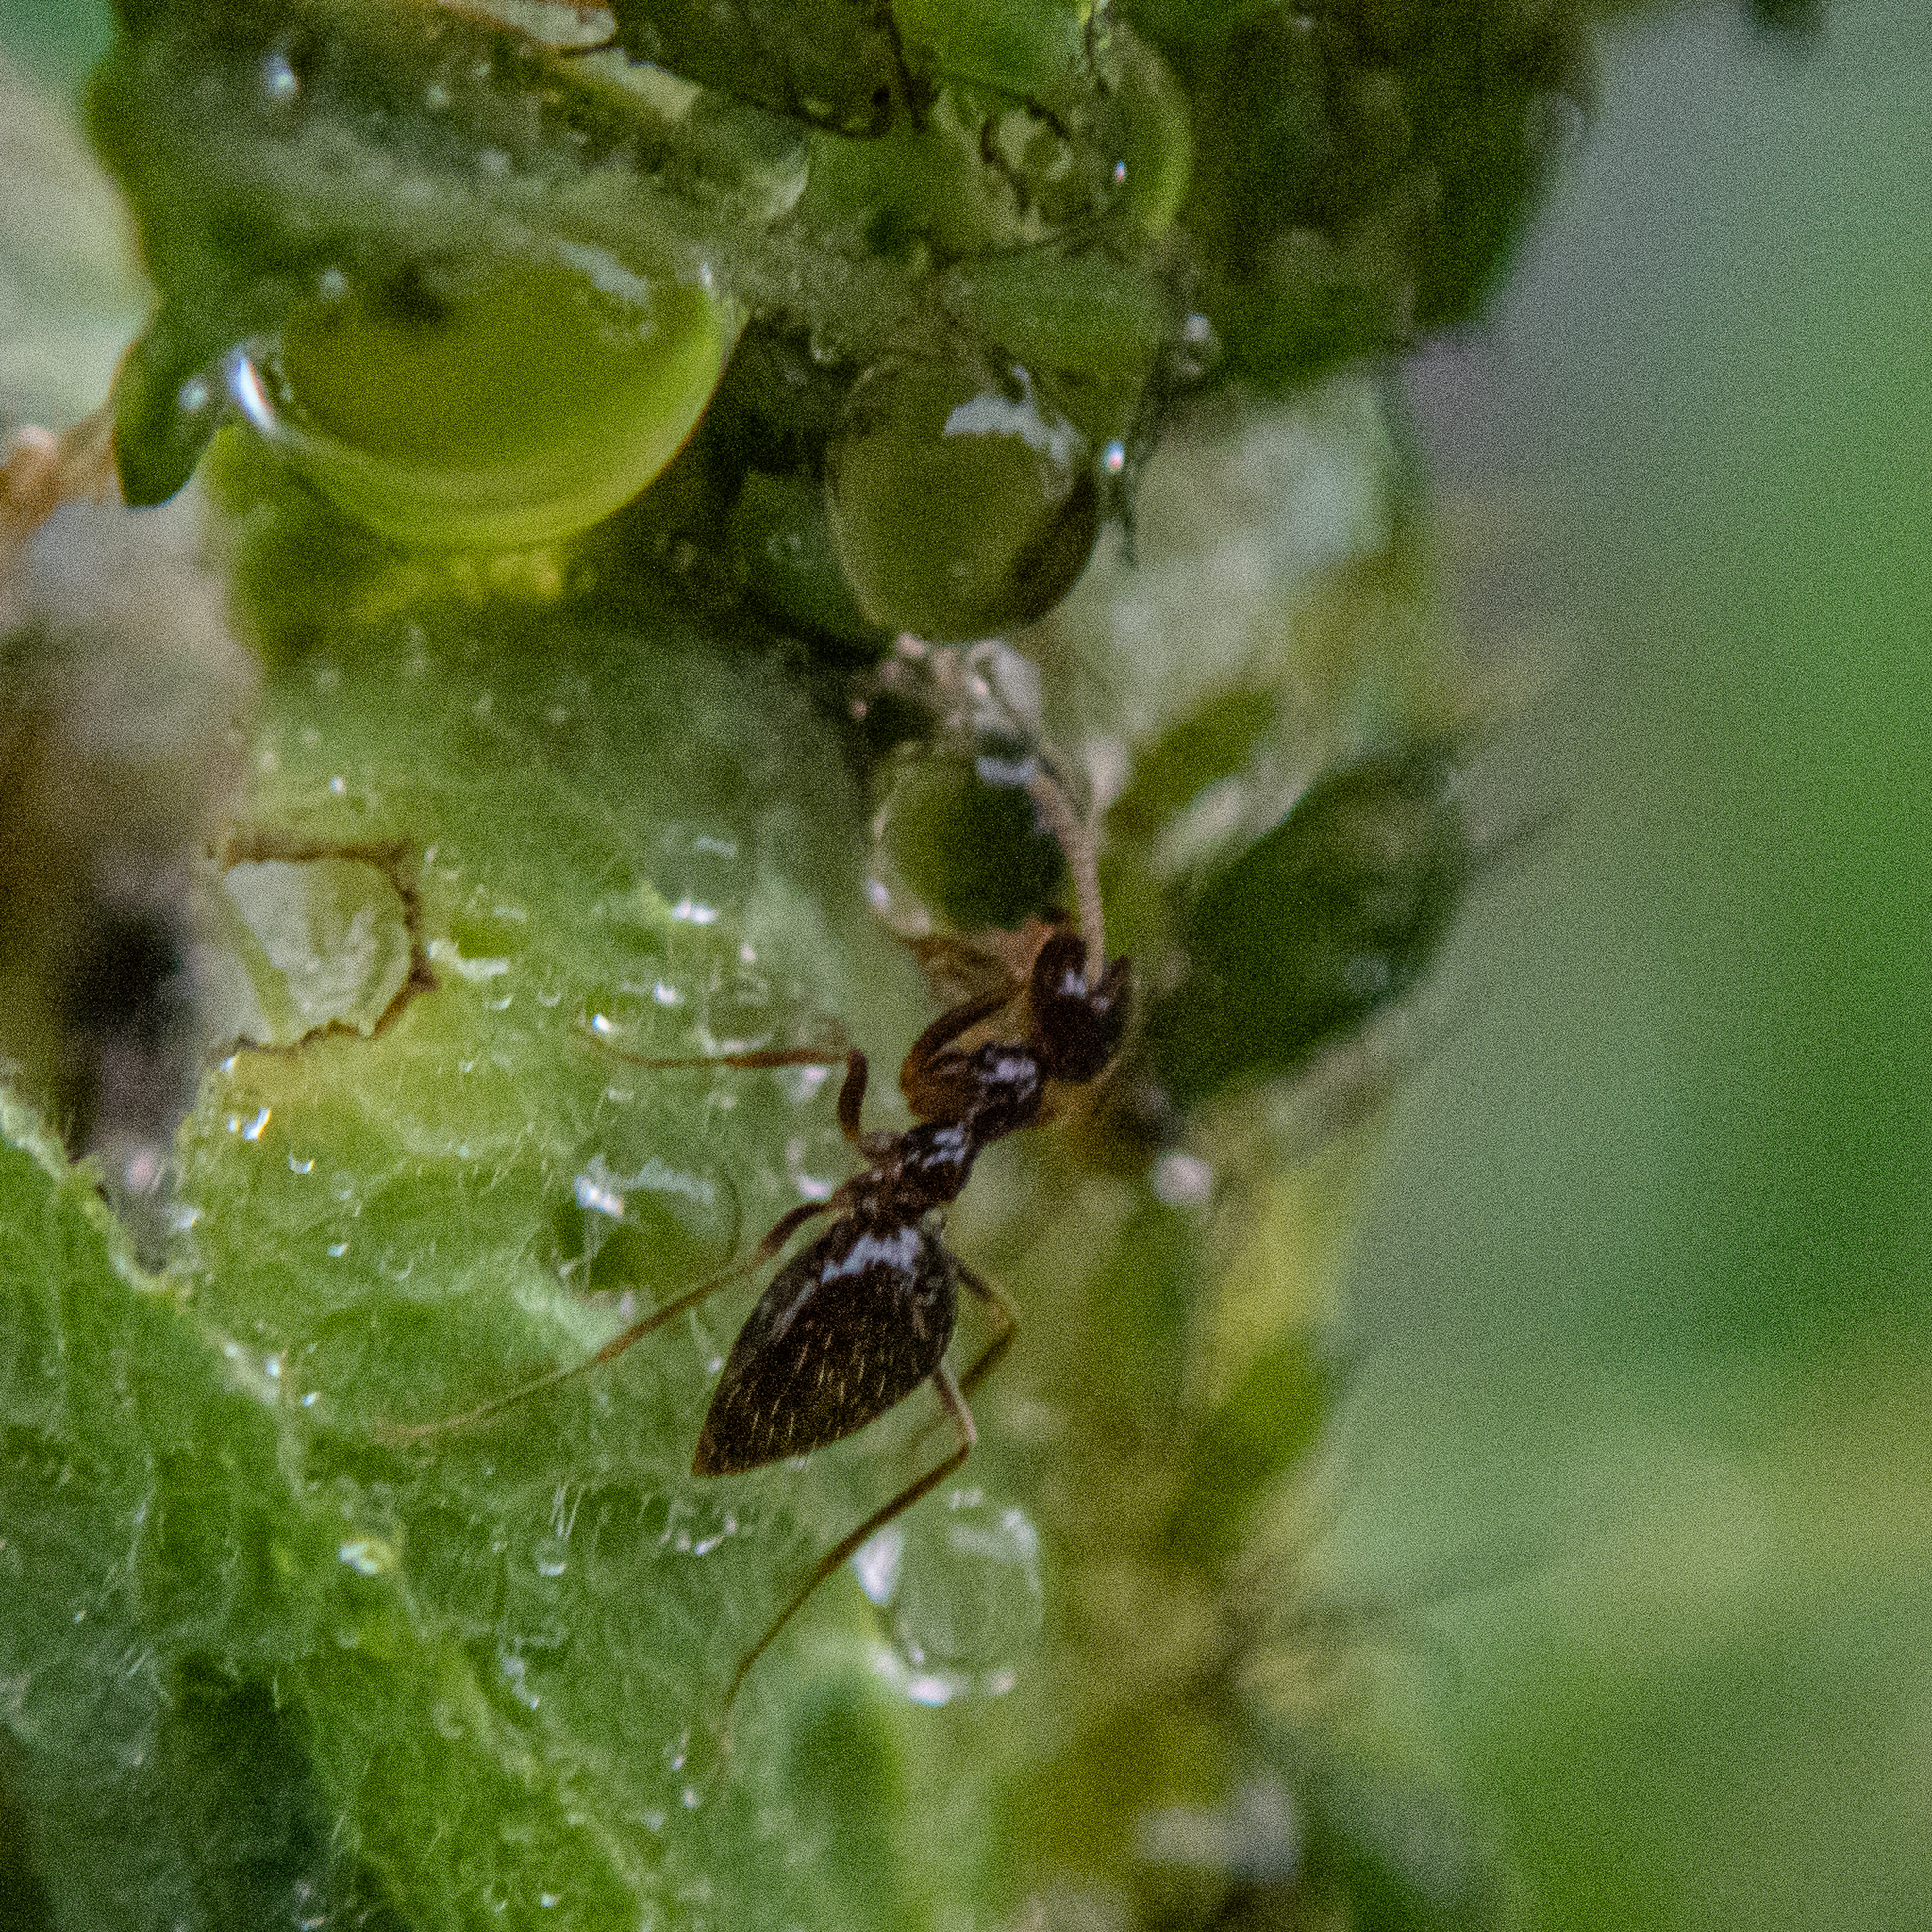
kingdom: Animalia
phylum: Arthropoda
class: Insecta
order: Hymenoptera
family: Formicidae
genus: Prenolepis
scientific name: Prenolepis imparis
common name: Small honey ant
